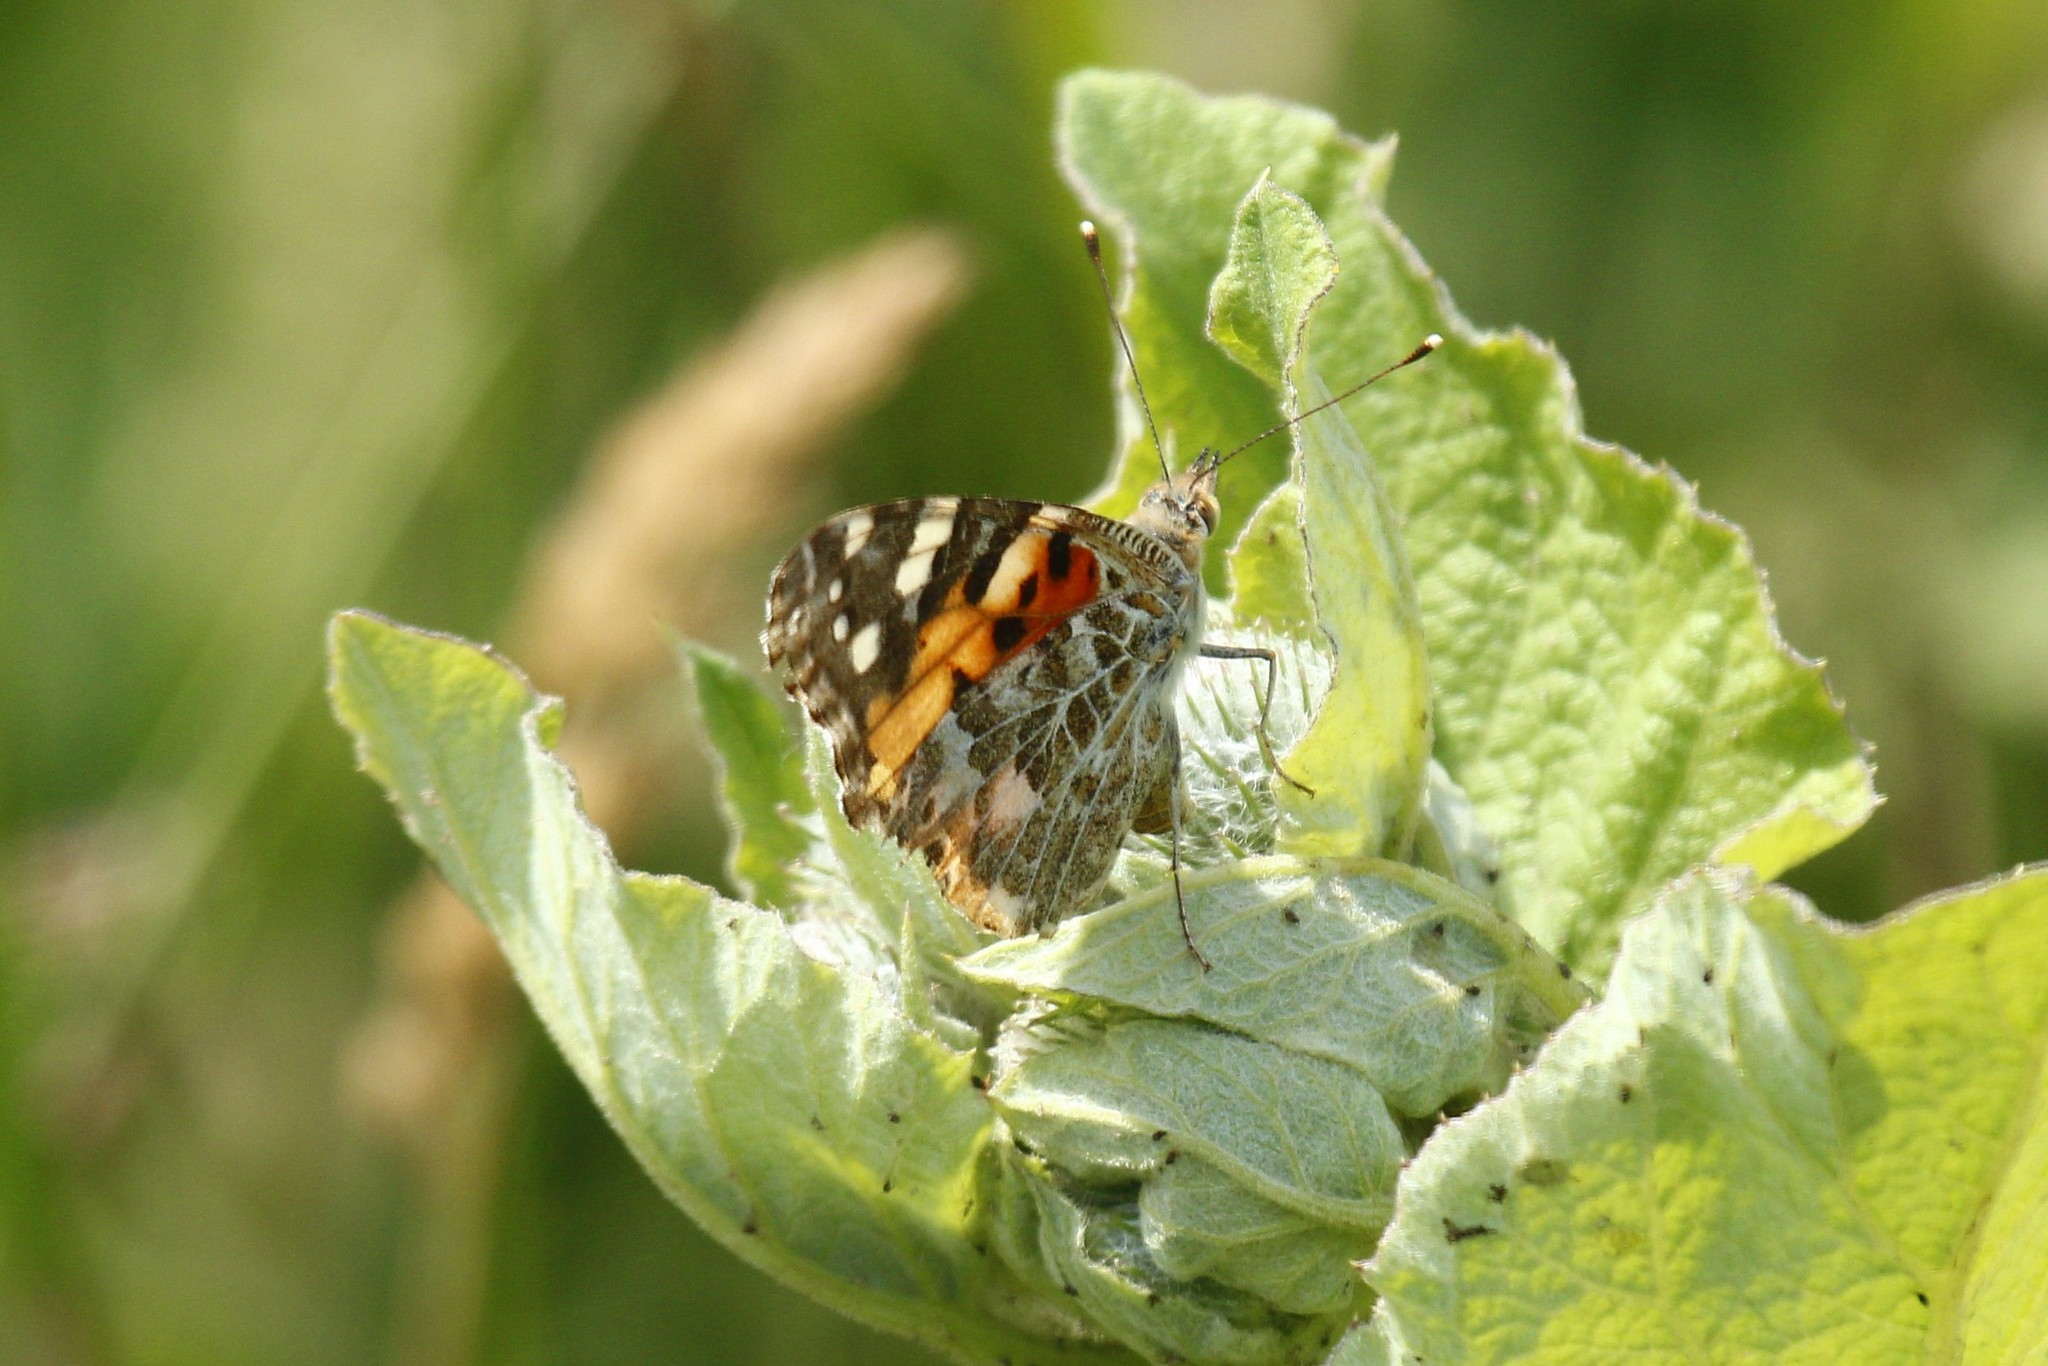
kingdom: Animalia
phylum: Arthropoda
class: Insecta
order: Lepidoptera
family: Nymphalidae
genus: Vanessa
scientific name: Vanessa cardui
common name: Painted lady
